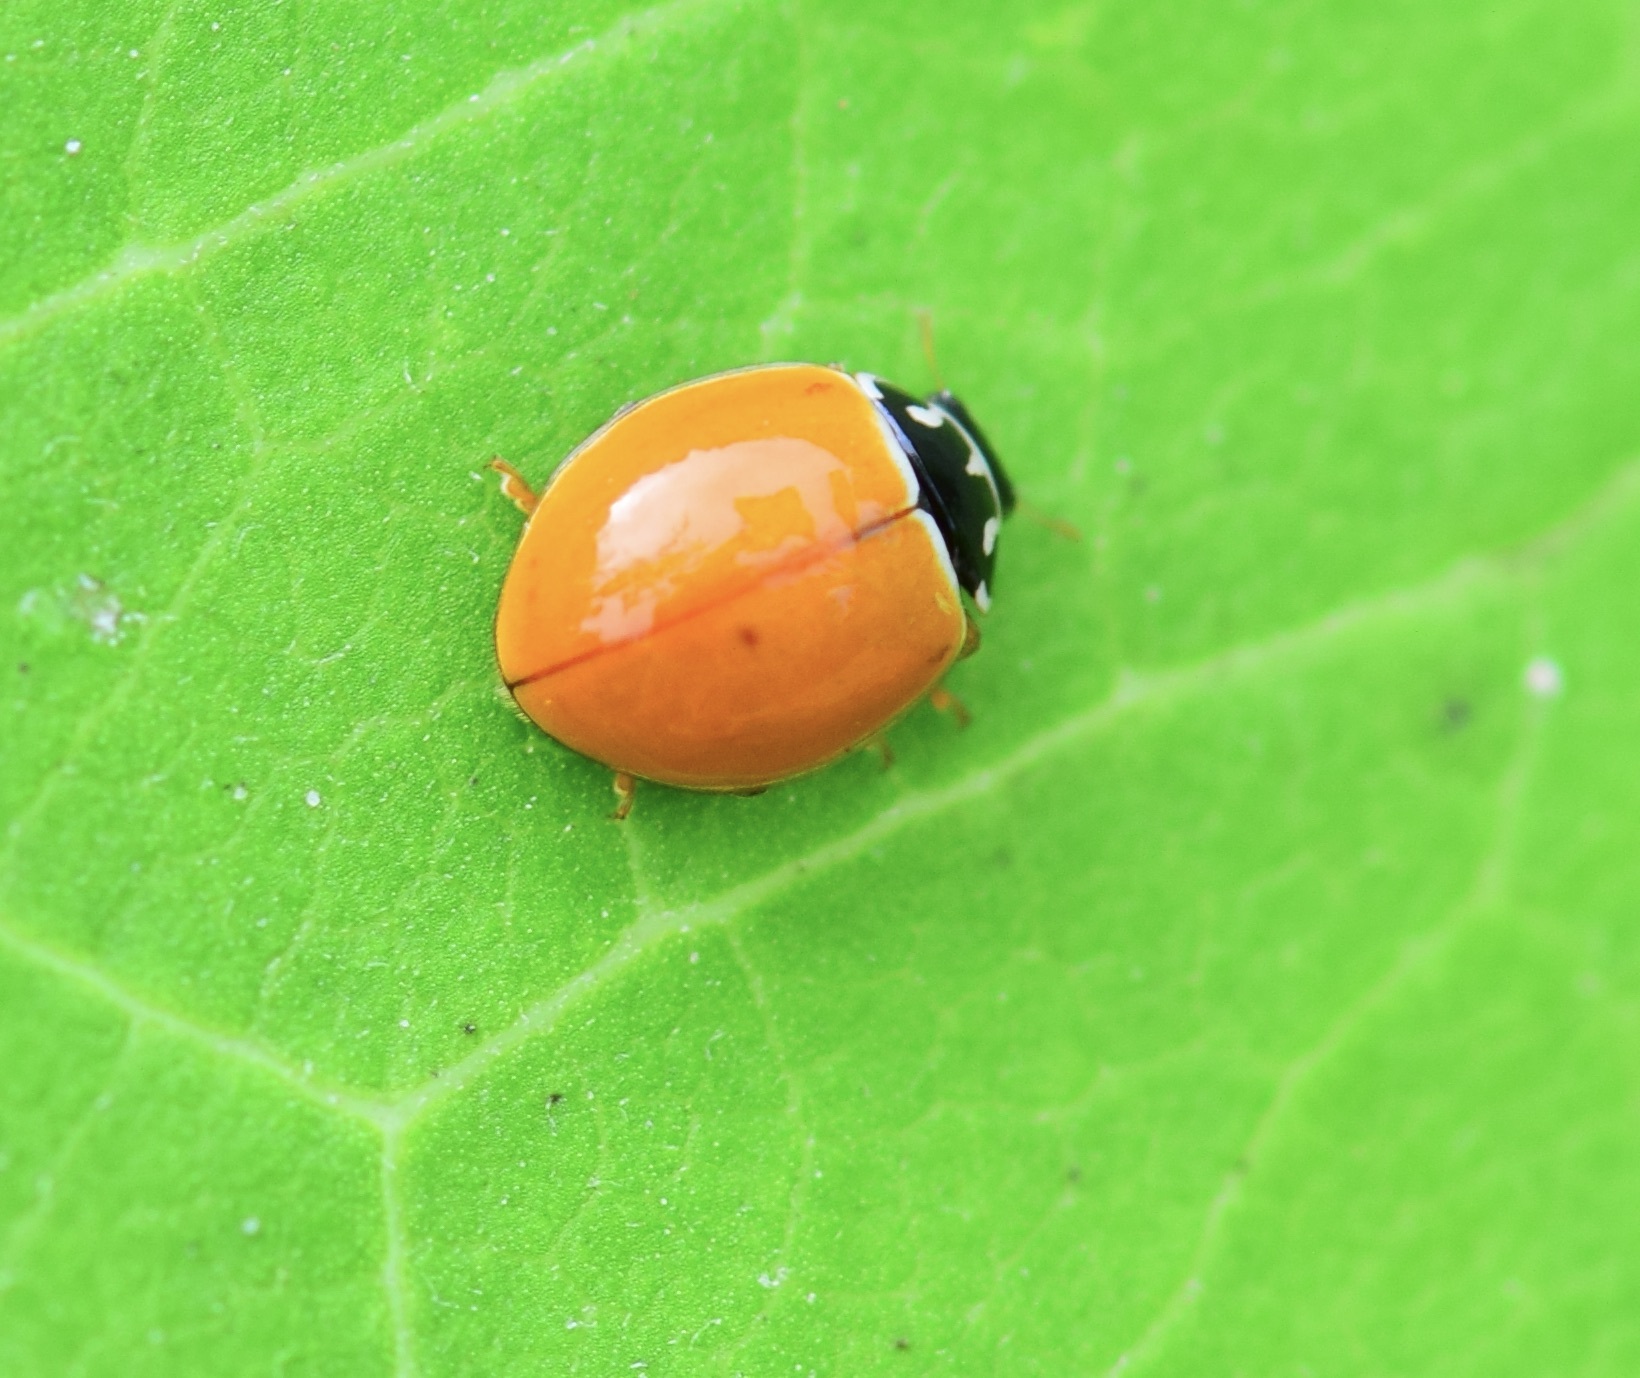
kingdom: Animalia
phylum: Arthropoda
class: Insecta
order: Coleoptera
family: Coccinellidae
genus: Cycloneda
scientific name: Cycloneda munda
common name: Polished lady beetle
